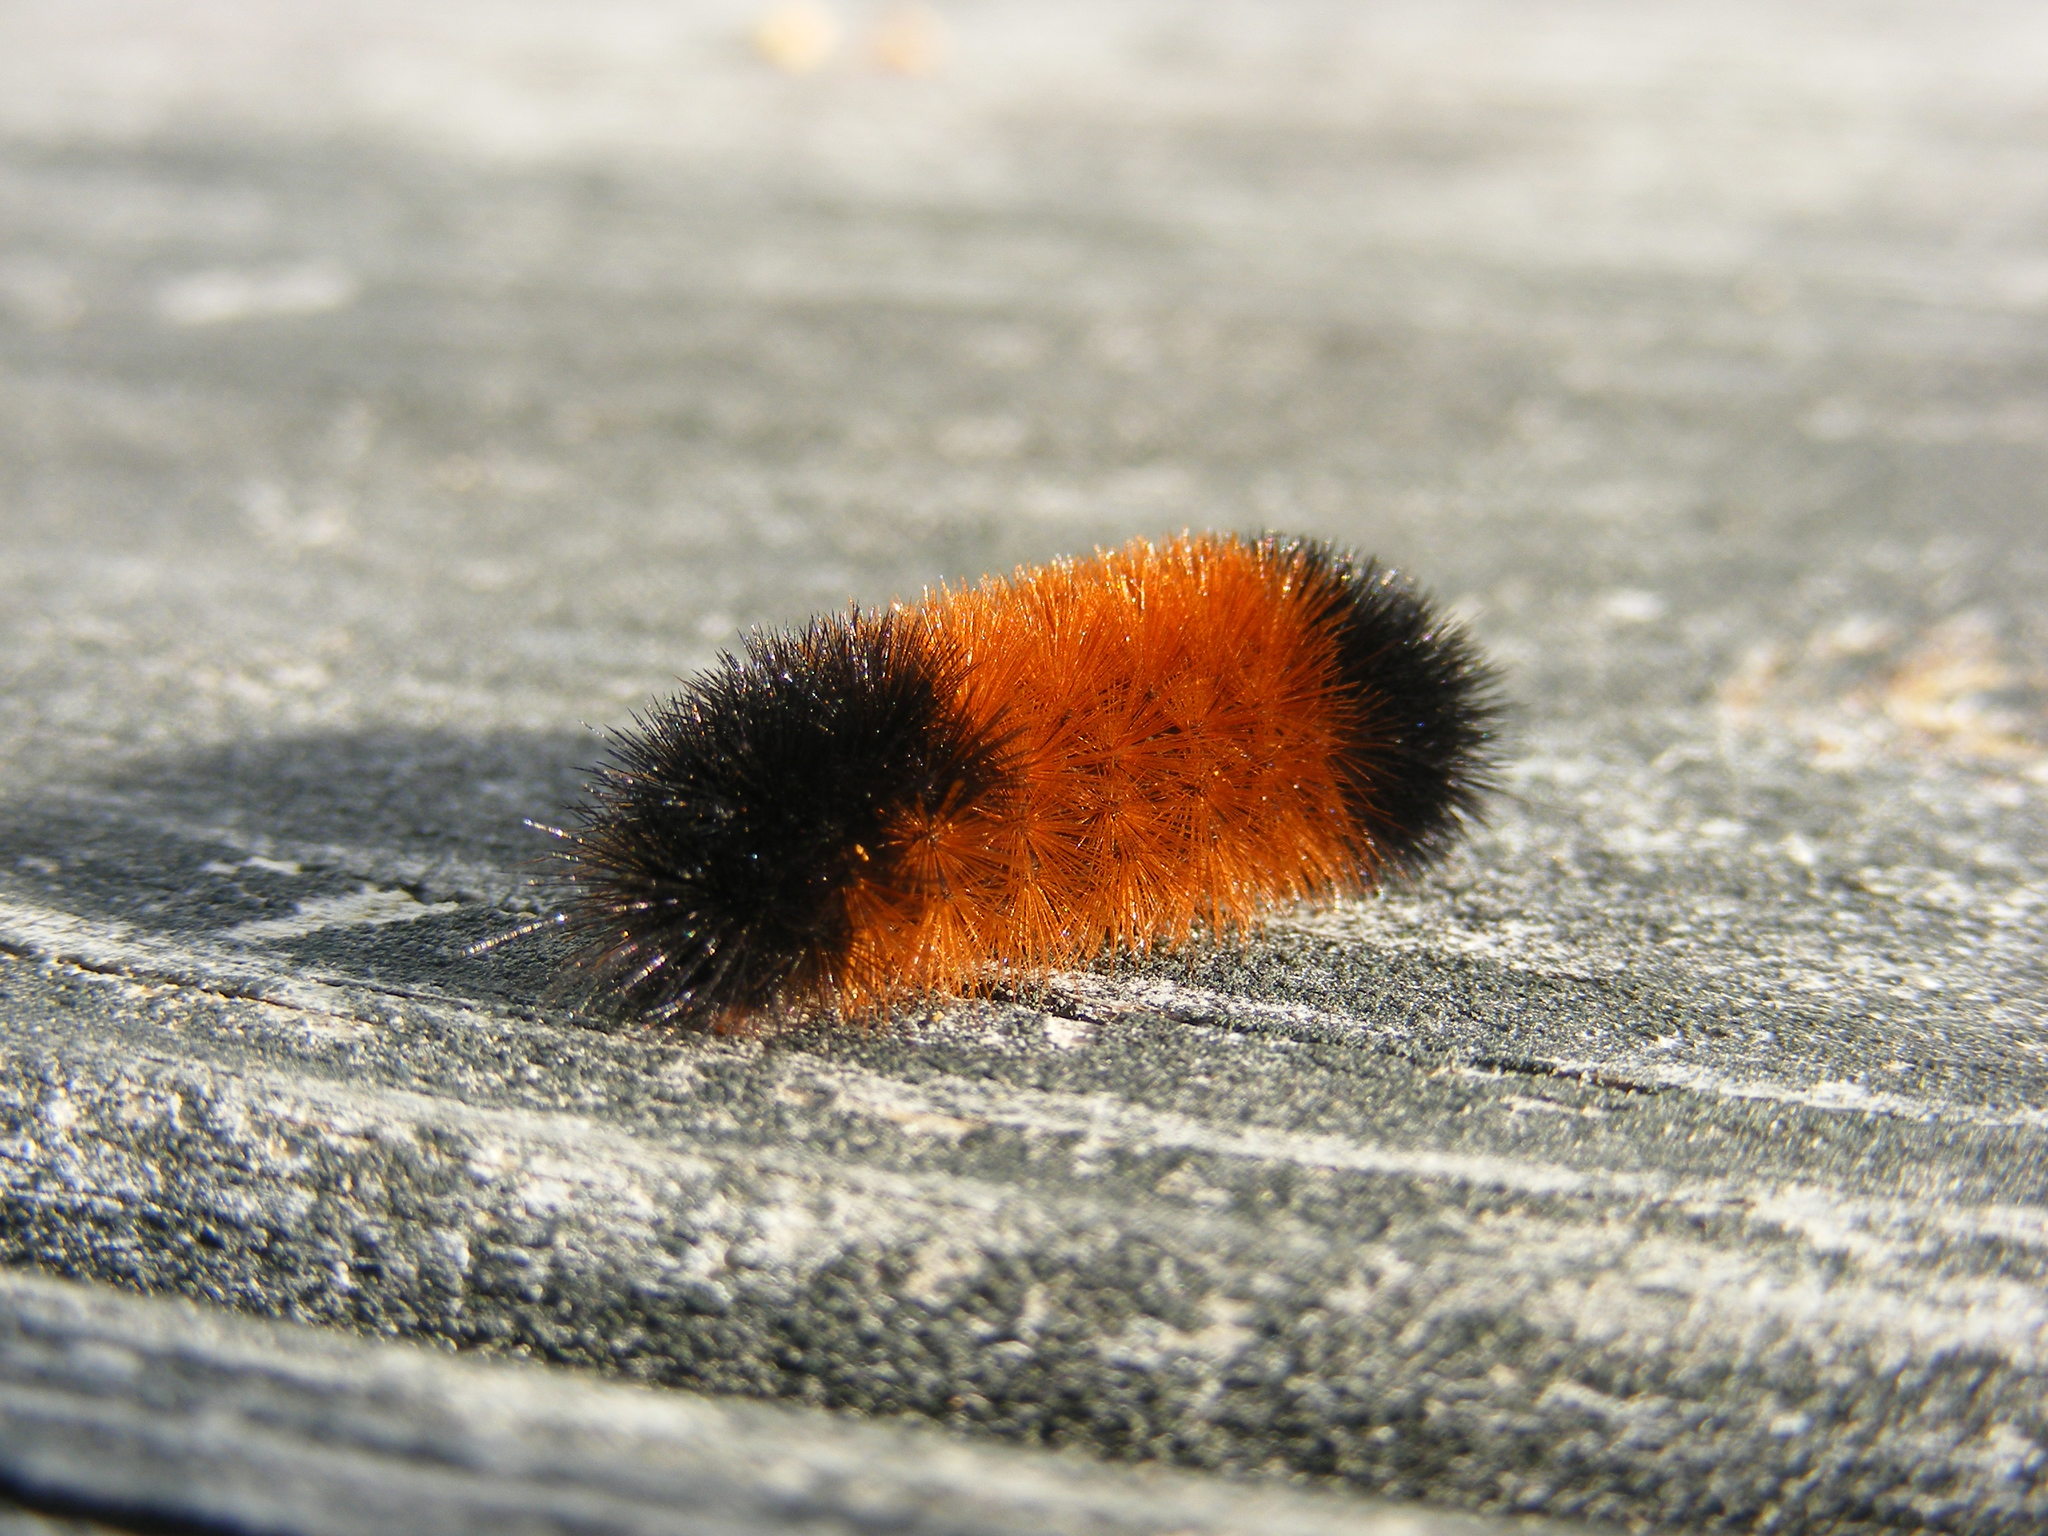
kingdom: Animalia
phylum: Arthropoda
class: Insecta
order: Lepidoptera
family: Erebidae
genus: Pyrrharctia
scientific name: Pyrrharctia isabella
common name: Isabella tiger moth
